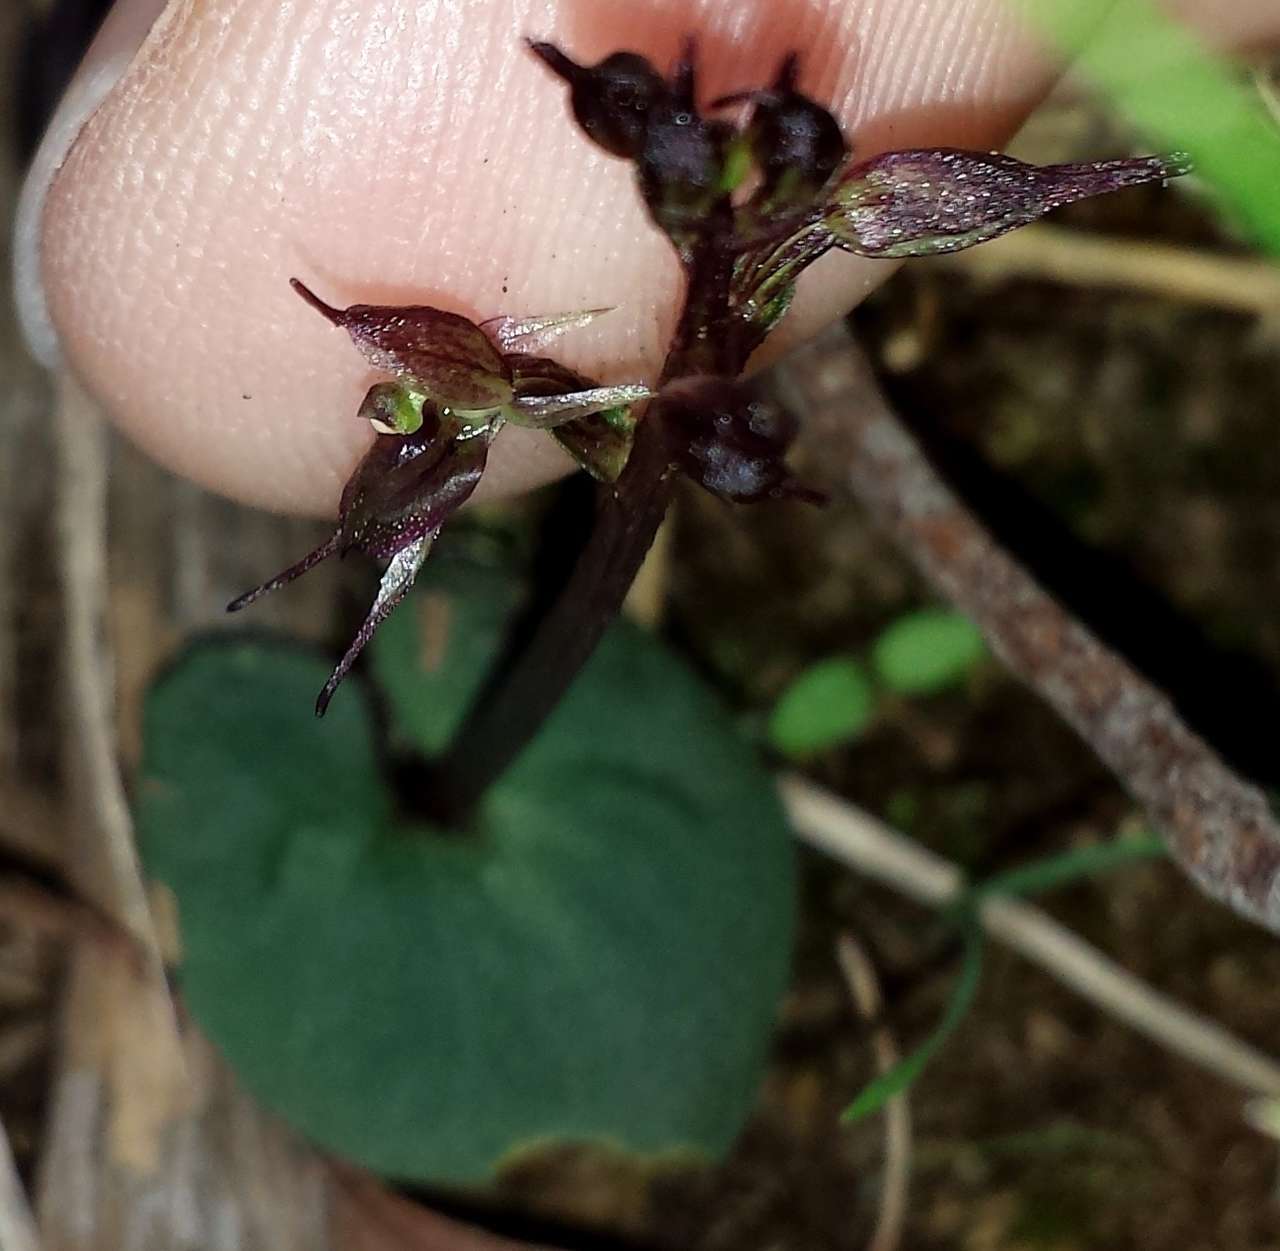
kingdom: Plantae
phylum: Tracheophyta
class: Liliopsida
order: Asparagales
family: Orchidaceae
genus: Acianthus
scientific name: Acianthus pusillus
